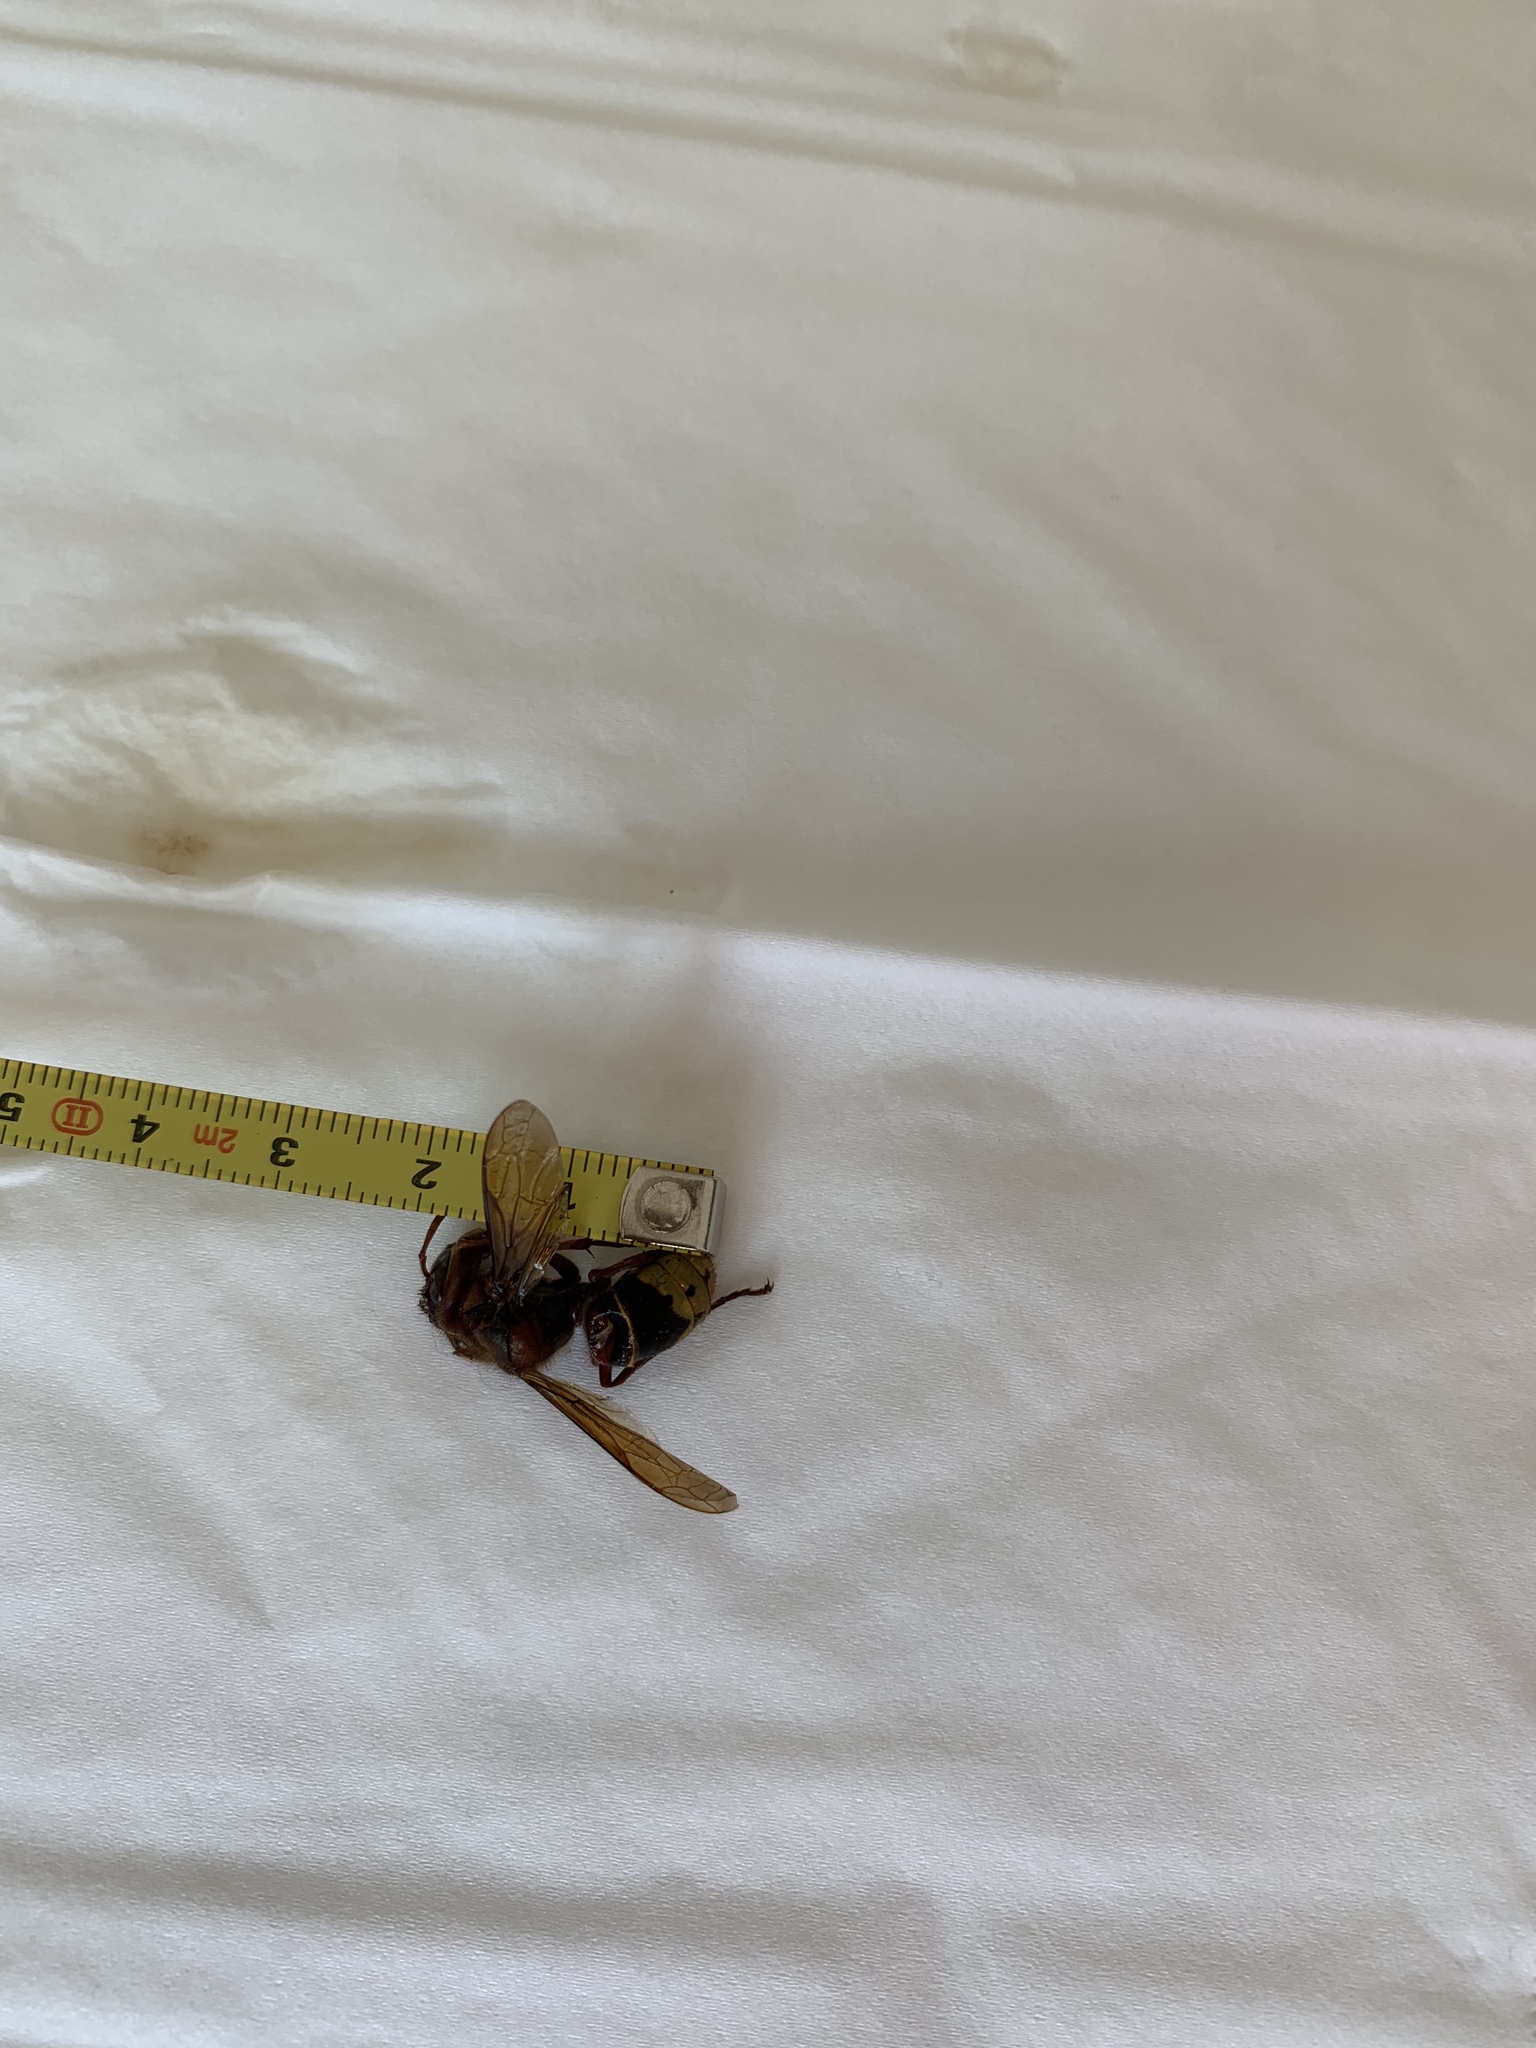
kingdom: Animalia
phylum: Arthropoda
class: Insecta
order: Hymenoptera
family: Vespidae
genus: Vespa
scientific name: Vespa crabro
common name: Hornet
